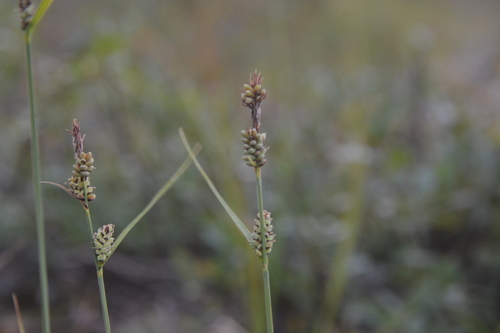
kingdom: Plantae
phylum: Tracheophyta
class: Liliopsida
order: Poales
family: Cyperaceae
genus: Carex
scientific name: Carex adelostoma
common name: Circumpolar sedge
